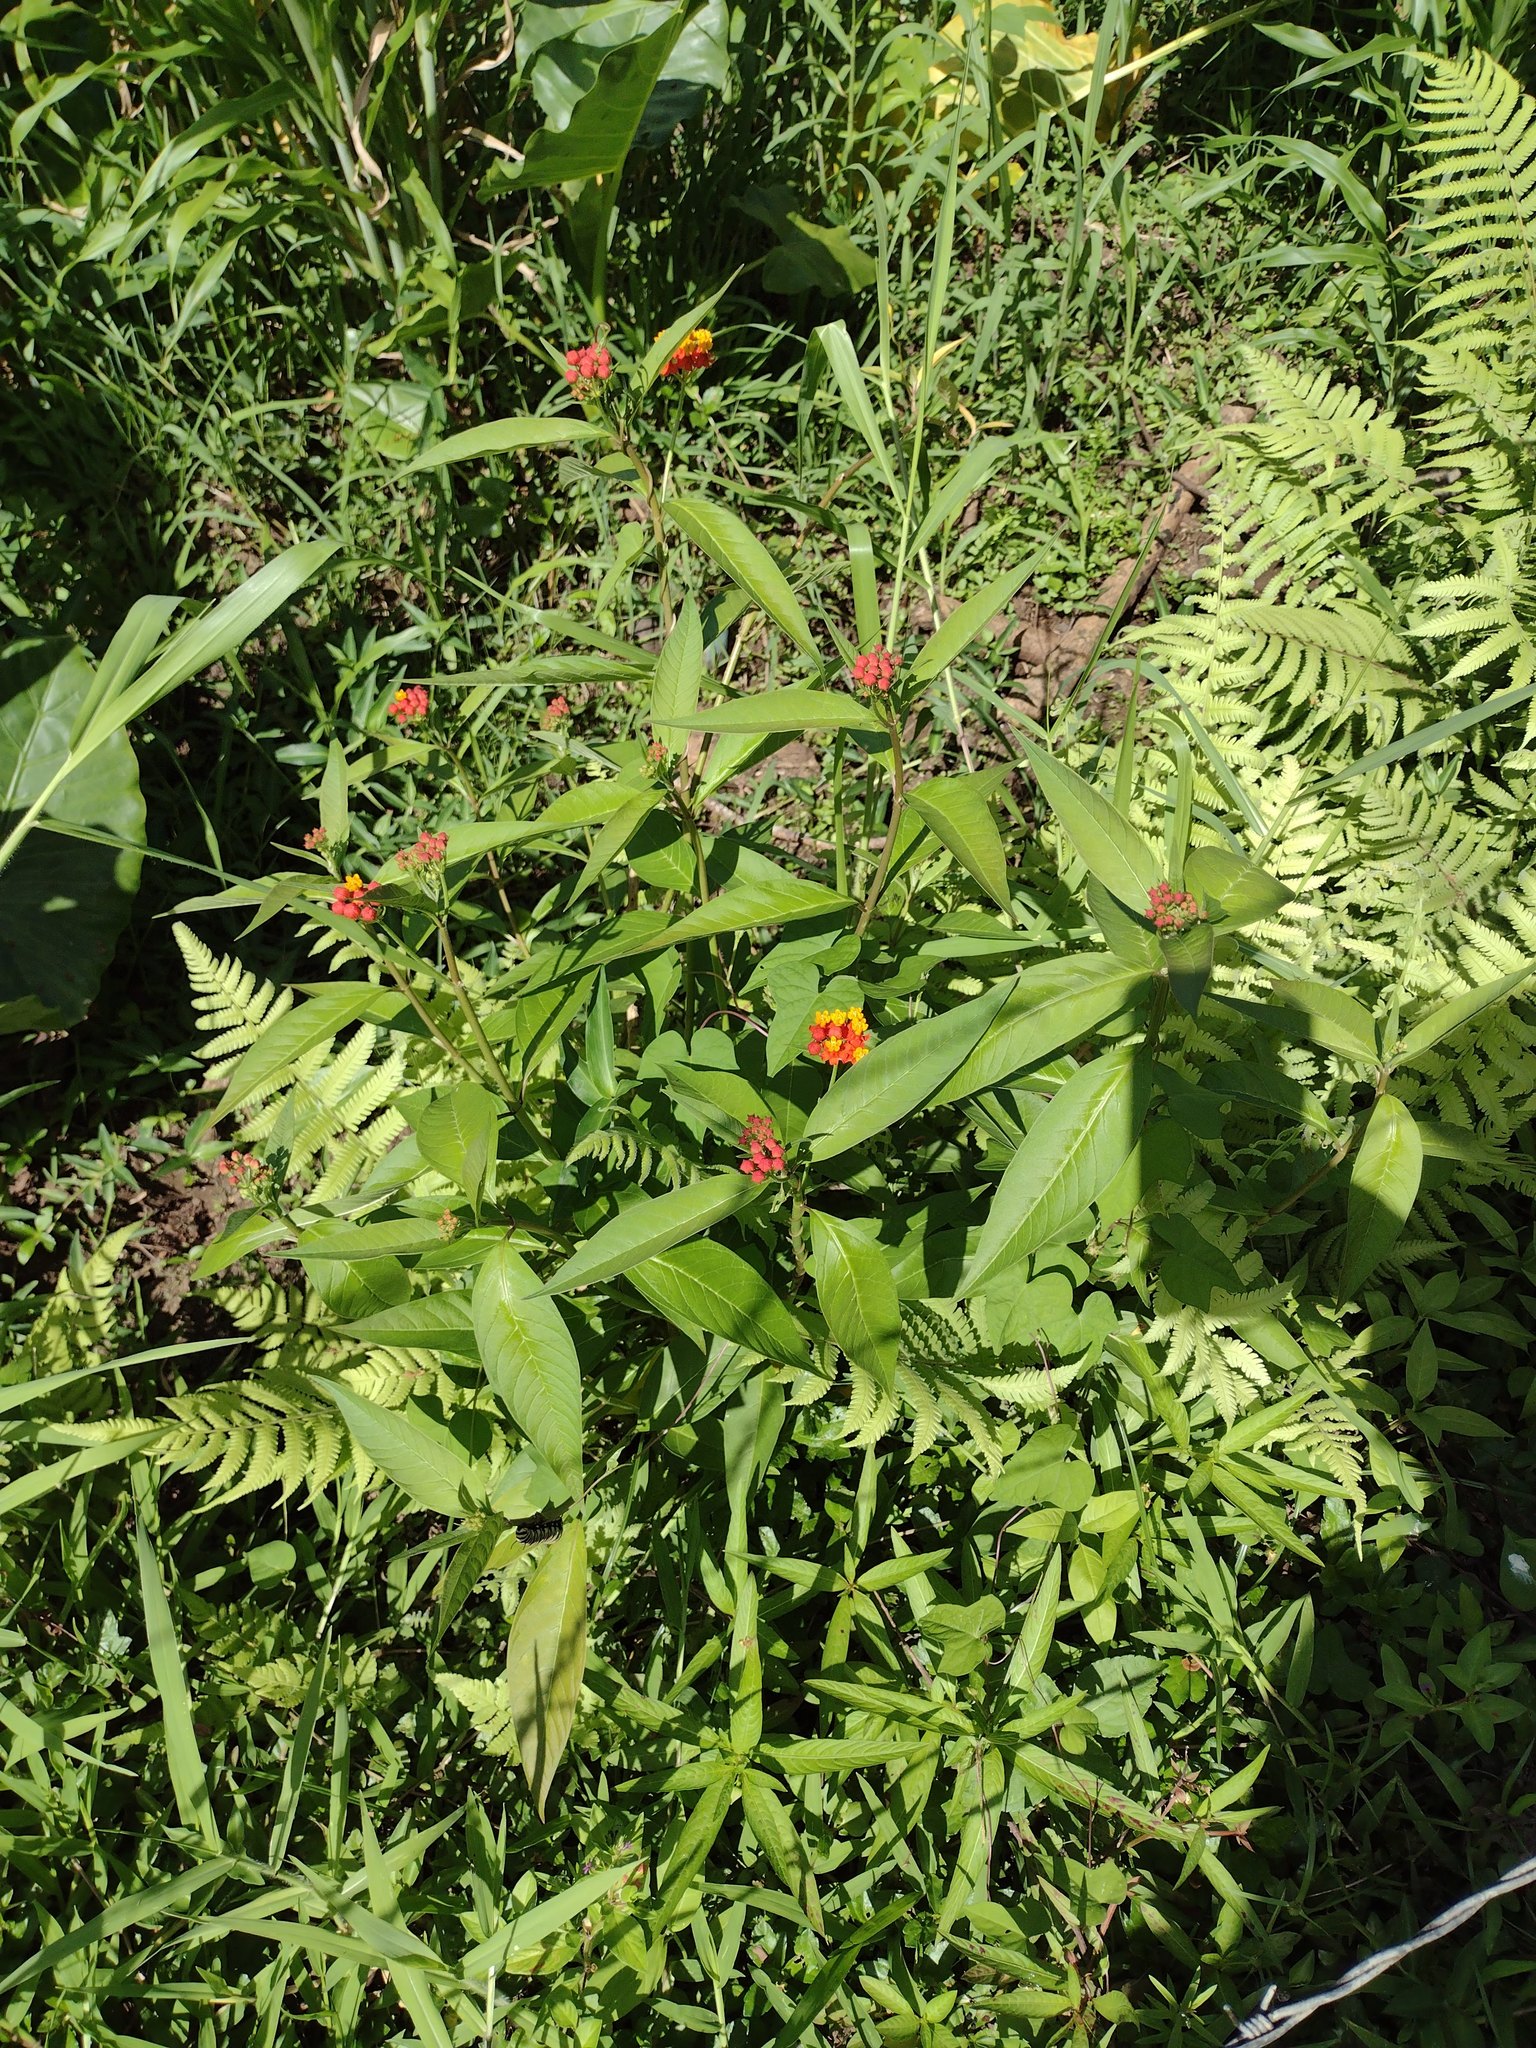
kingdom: Plantae
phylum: Tracheophyta
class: Magnoliopsida
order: Gentianales
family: Apocynaceae
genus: Asclepias
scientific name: Asclepias curassavica
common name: Bloodflower
